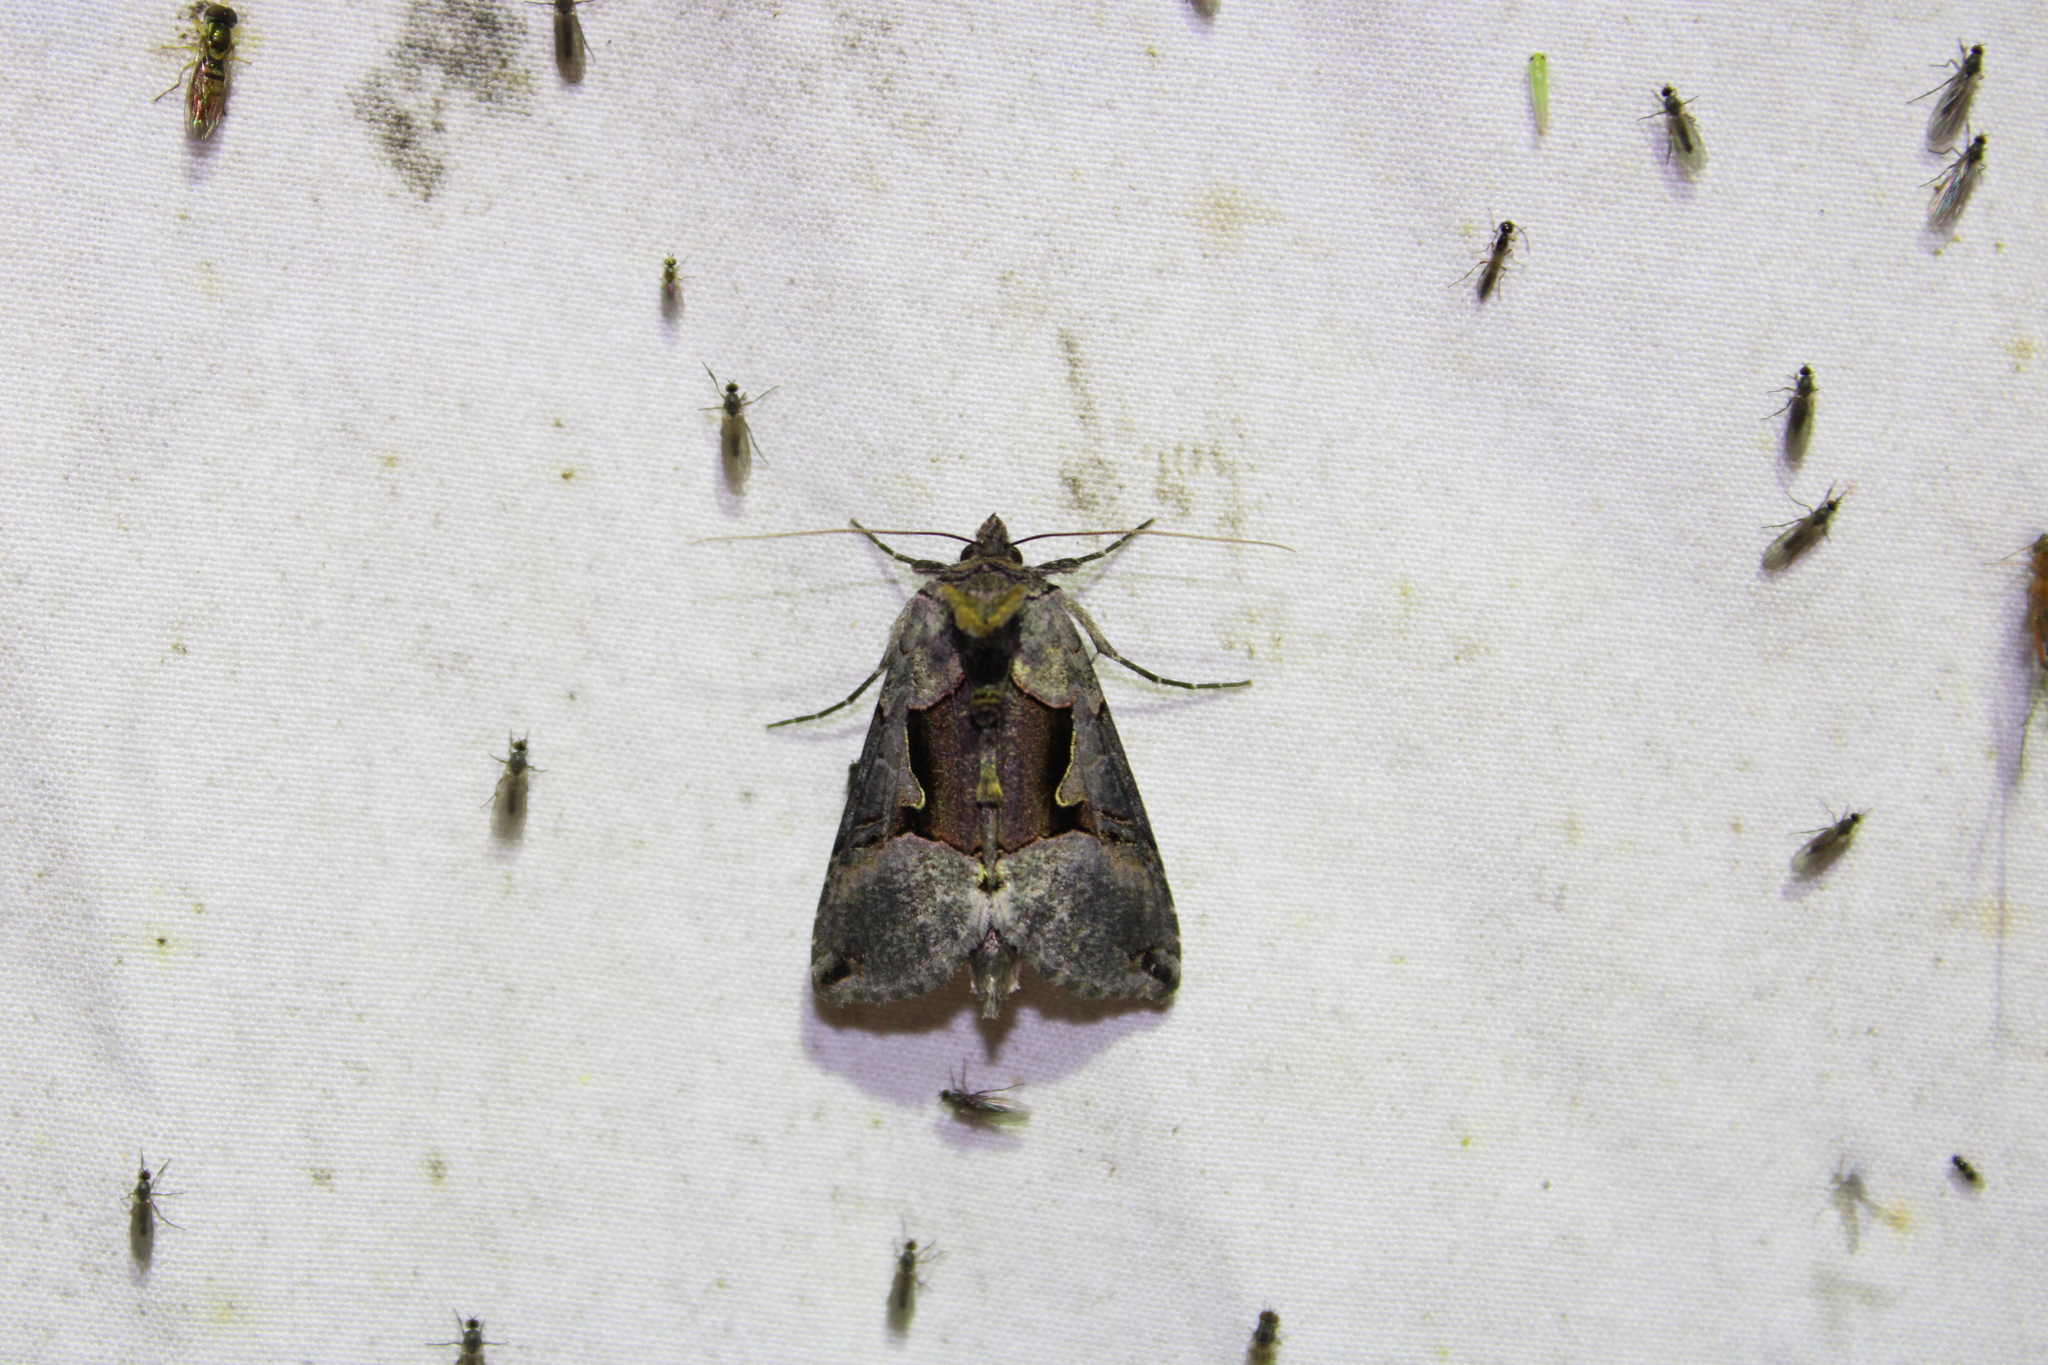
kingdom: Animalia
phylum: Arthropoda
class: Insecta
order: Lepidoptera
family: Noctuidae
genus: Autographa
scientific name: Autographa ampla
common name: Large looper moth
